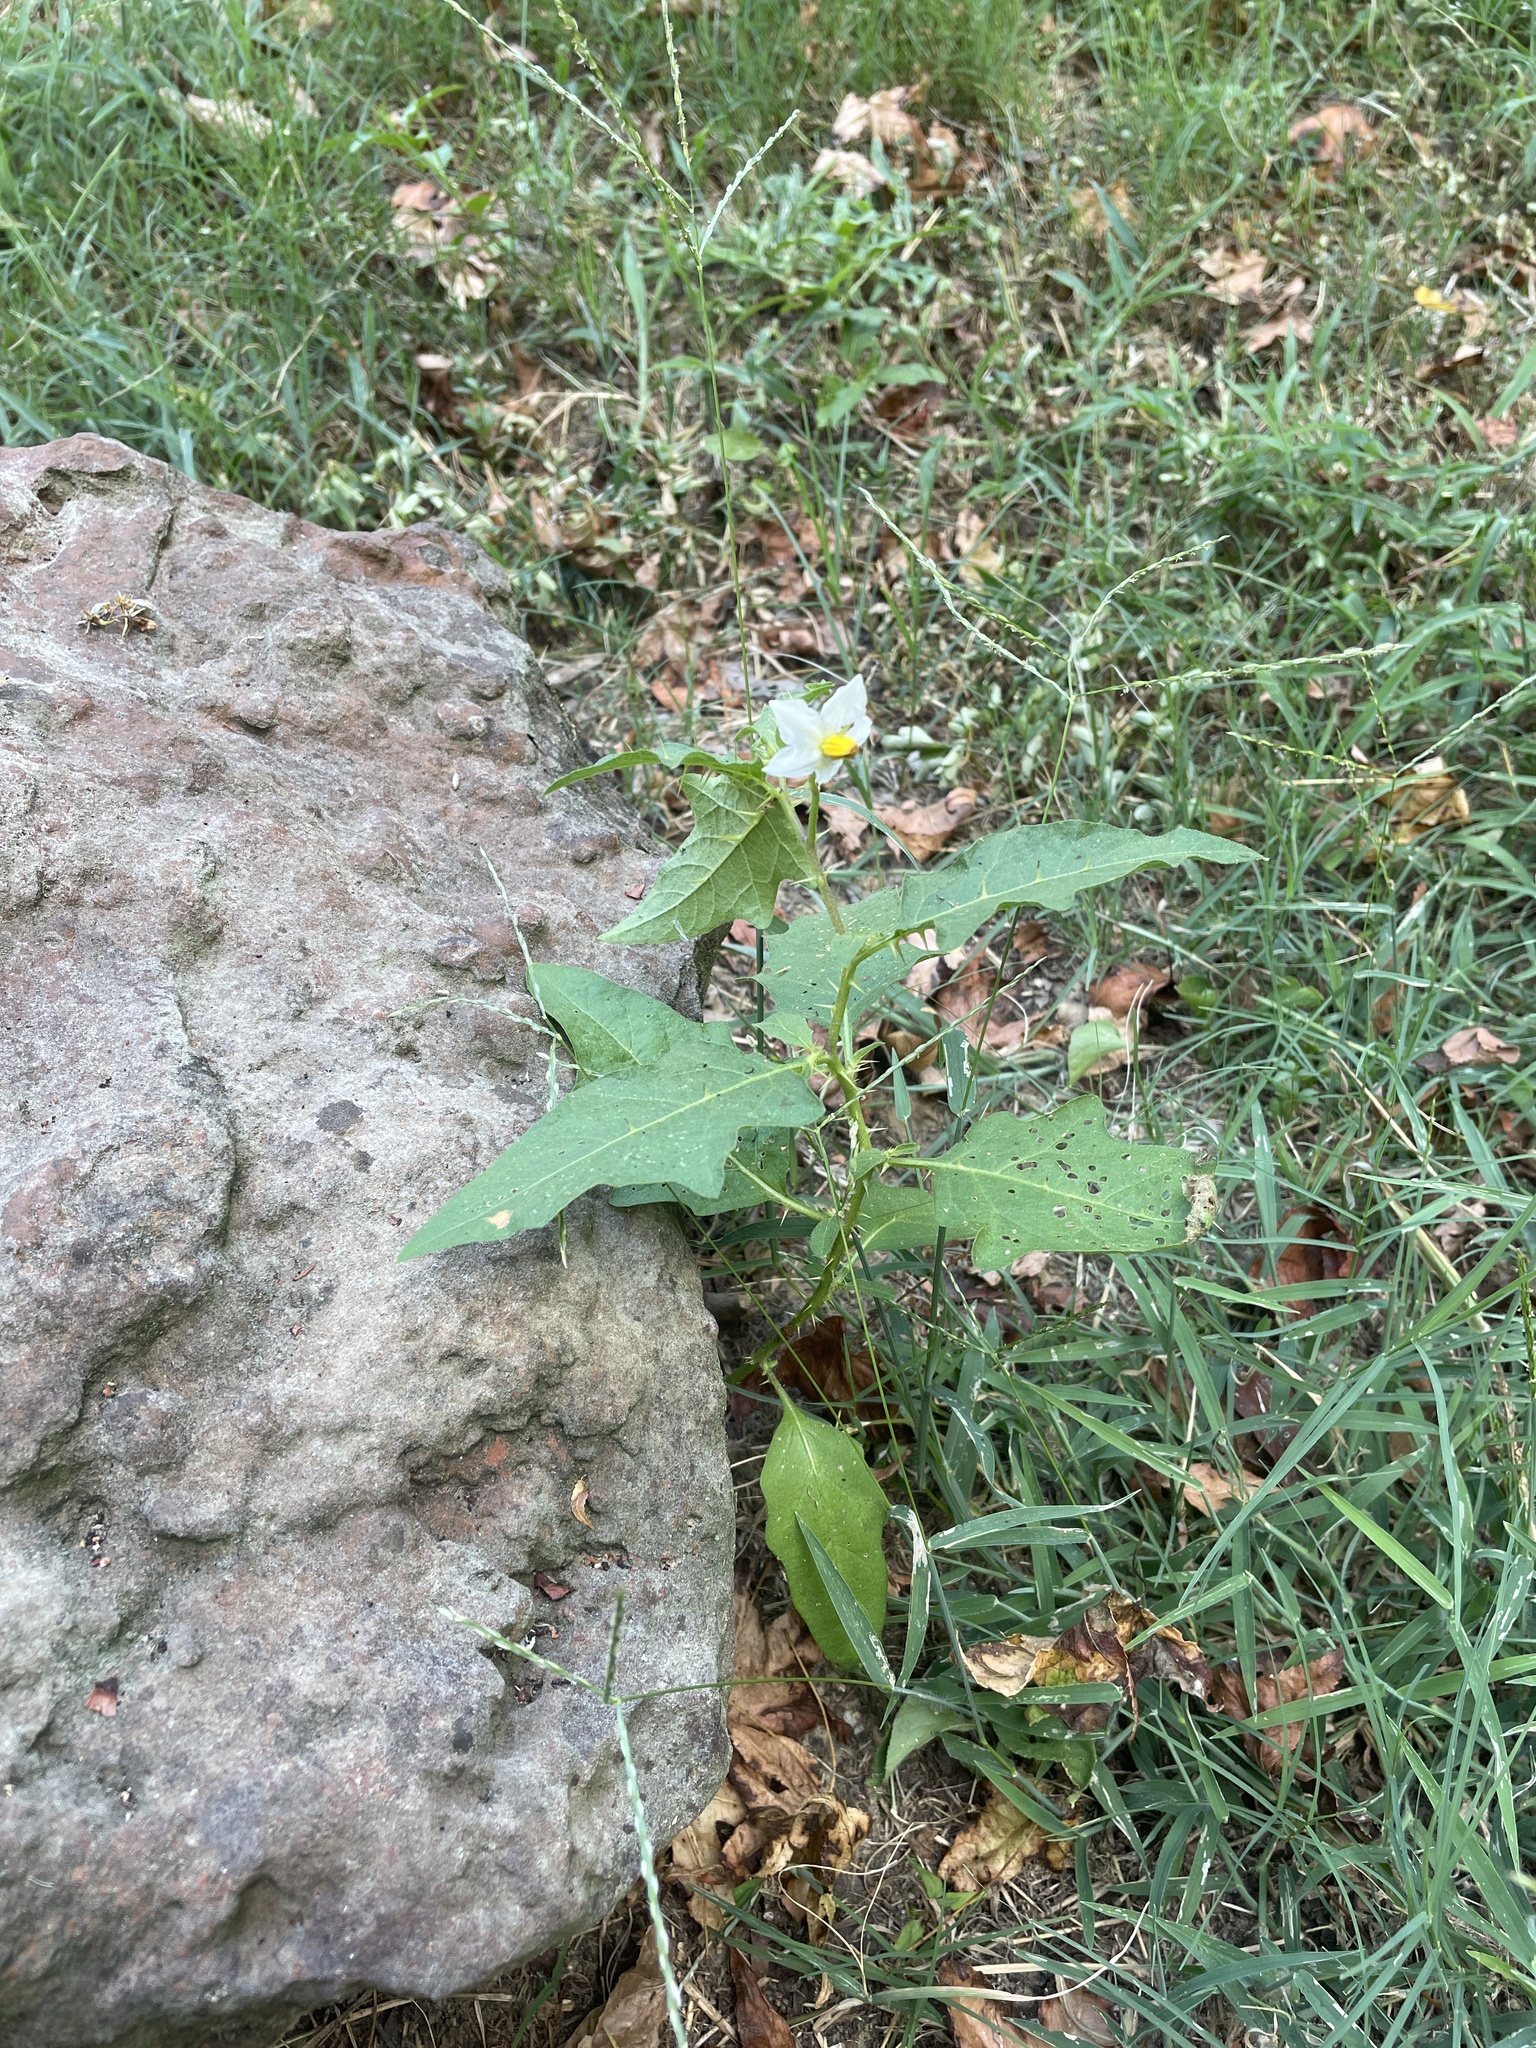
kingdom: Plantae
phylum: Tracheophyta
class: Magnoliopsida
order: Solanales
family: Solanaceae
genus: Solanum
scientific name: Solanum carolinense
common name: Horse-nettle
